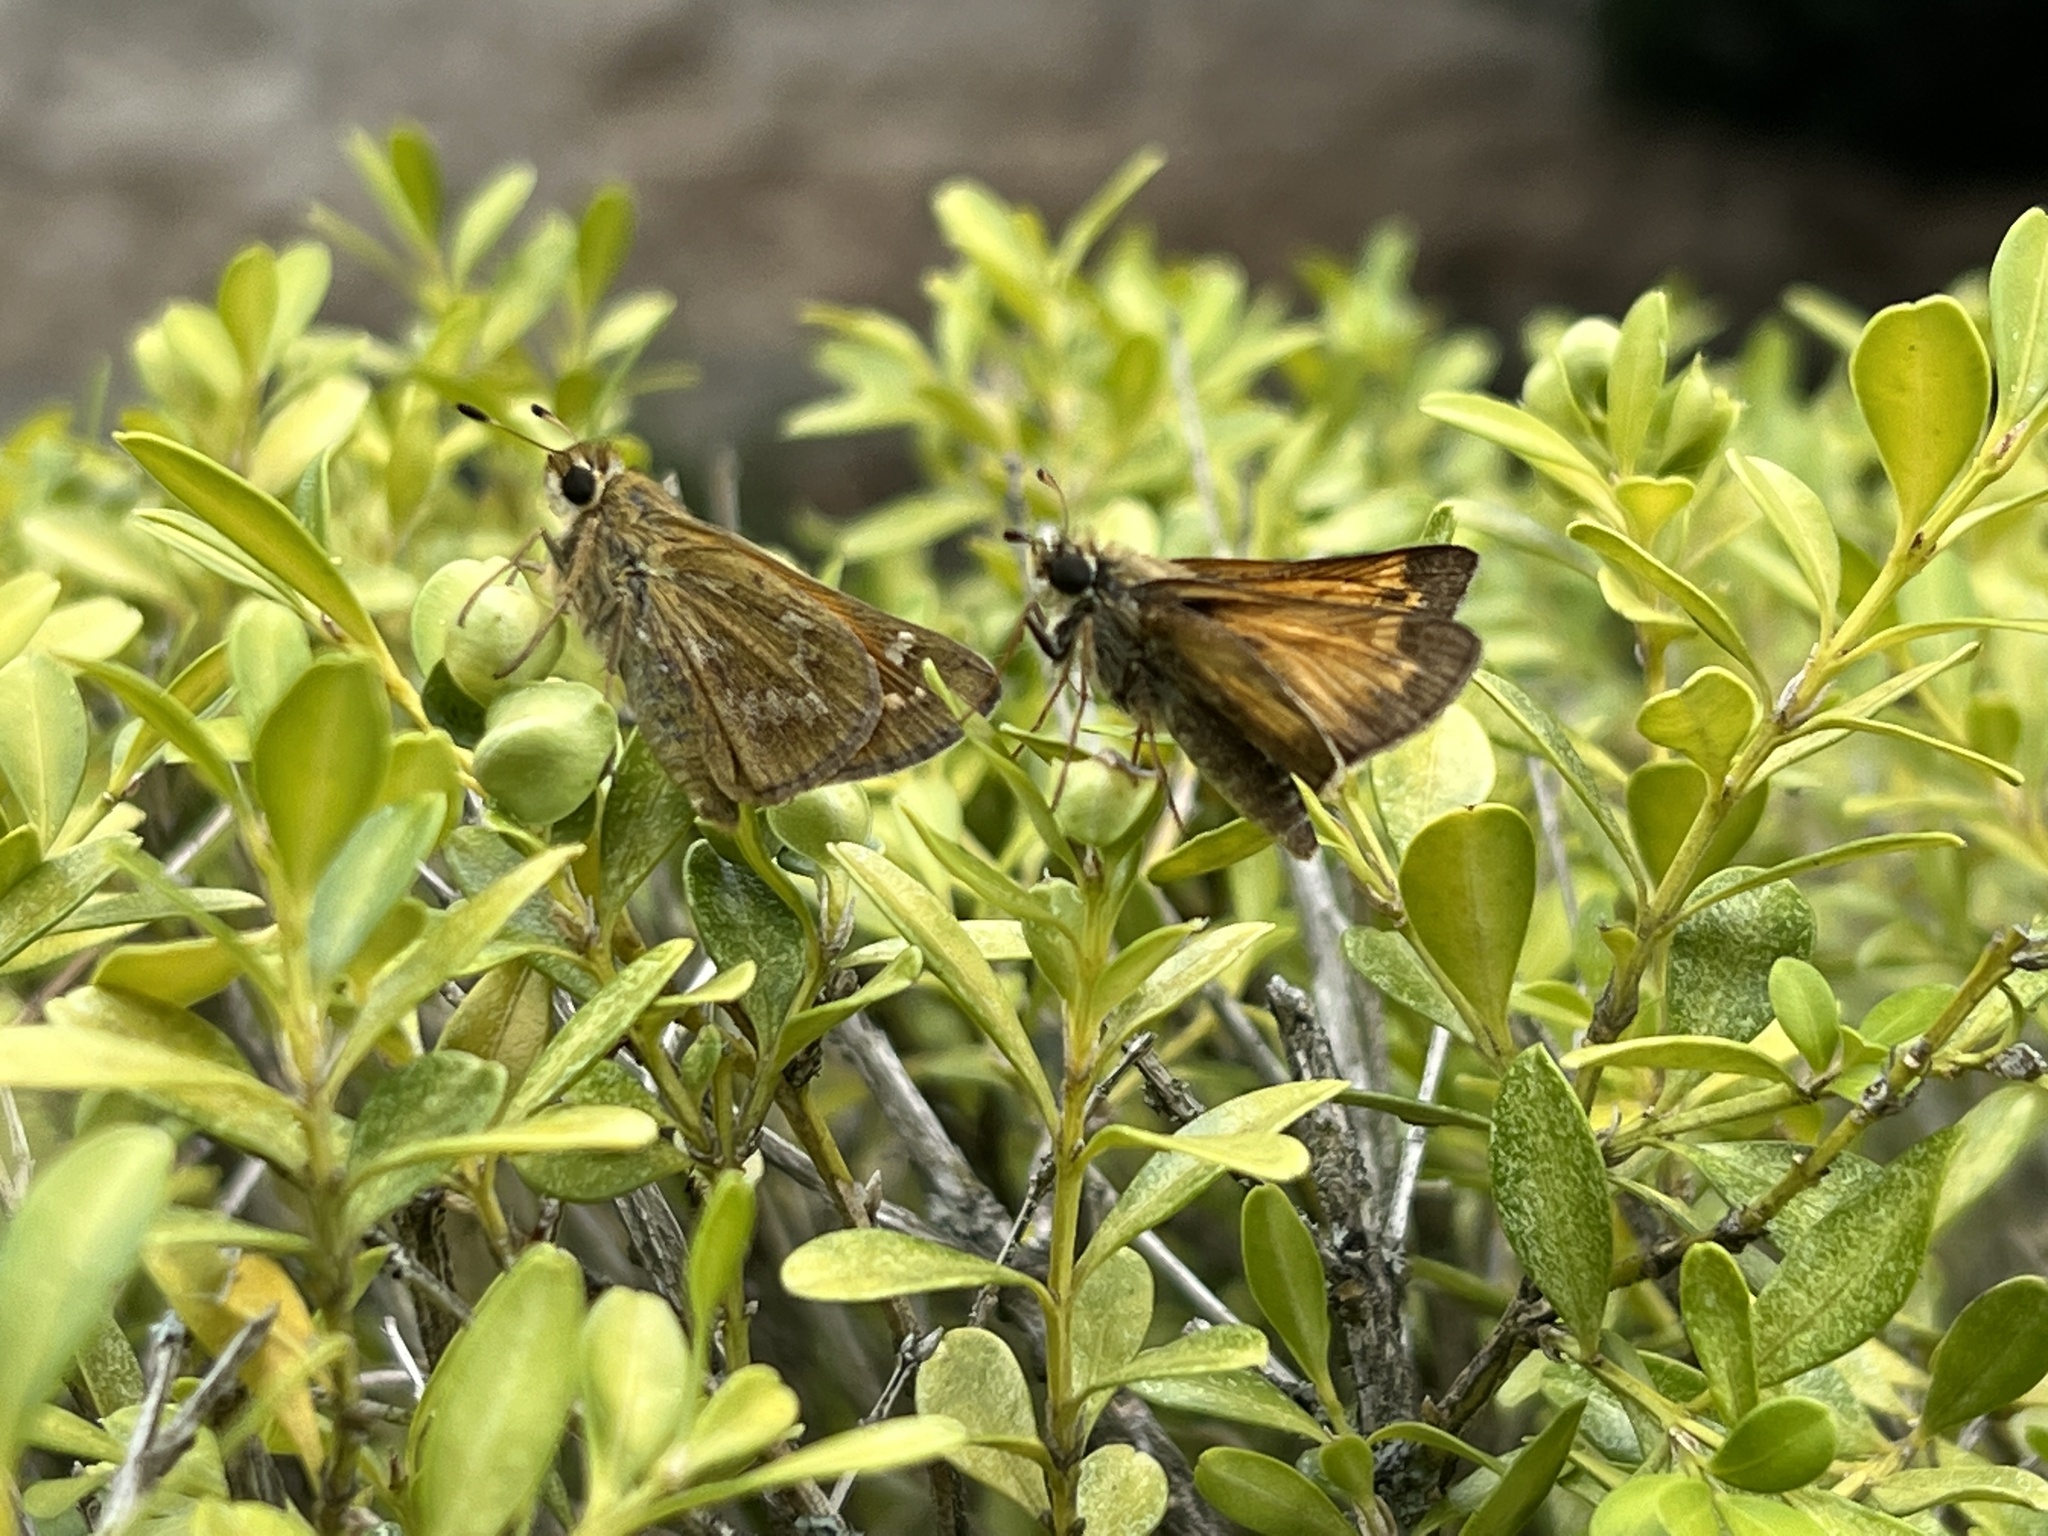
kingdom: Animalia
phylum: Arthropoda
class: Insecta
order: Lepidoptera
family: Hesperiidae
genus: Atalopedes
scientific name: Atalopedes
